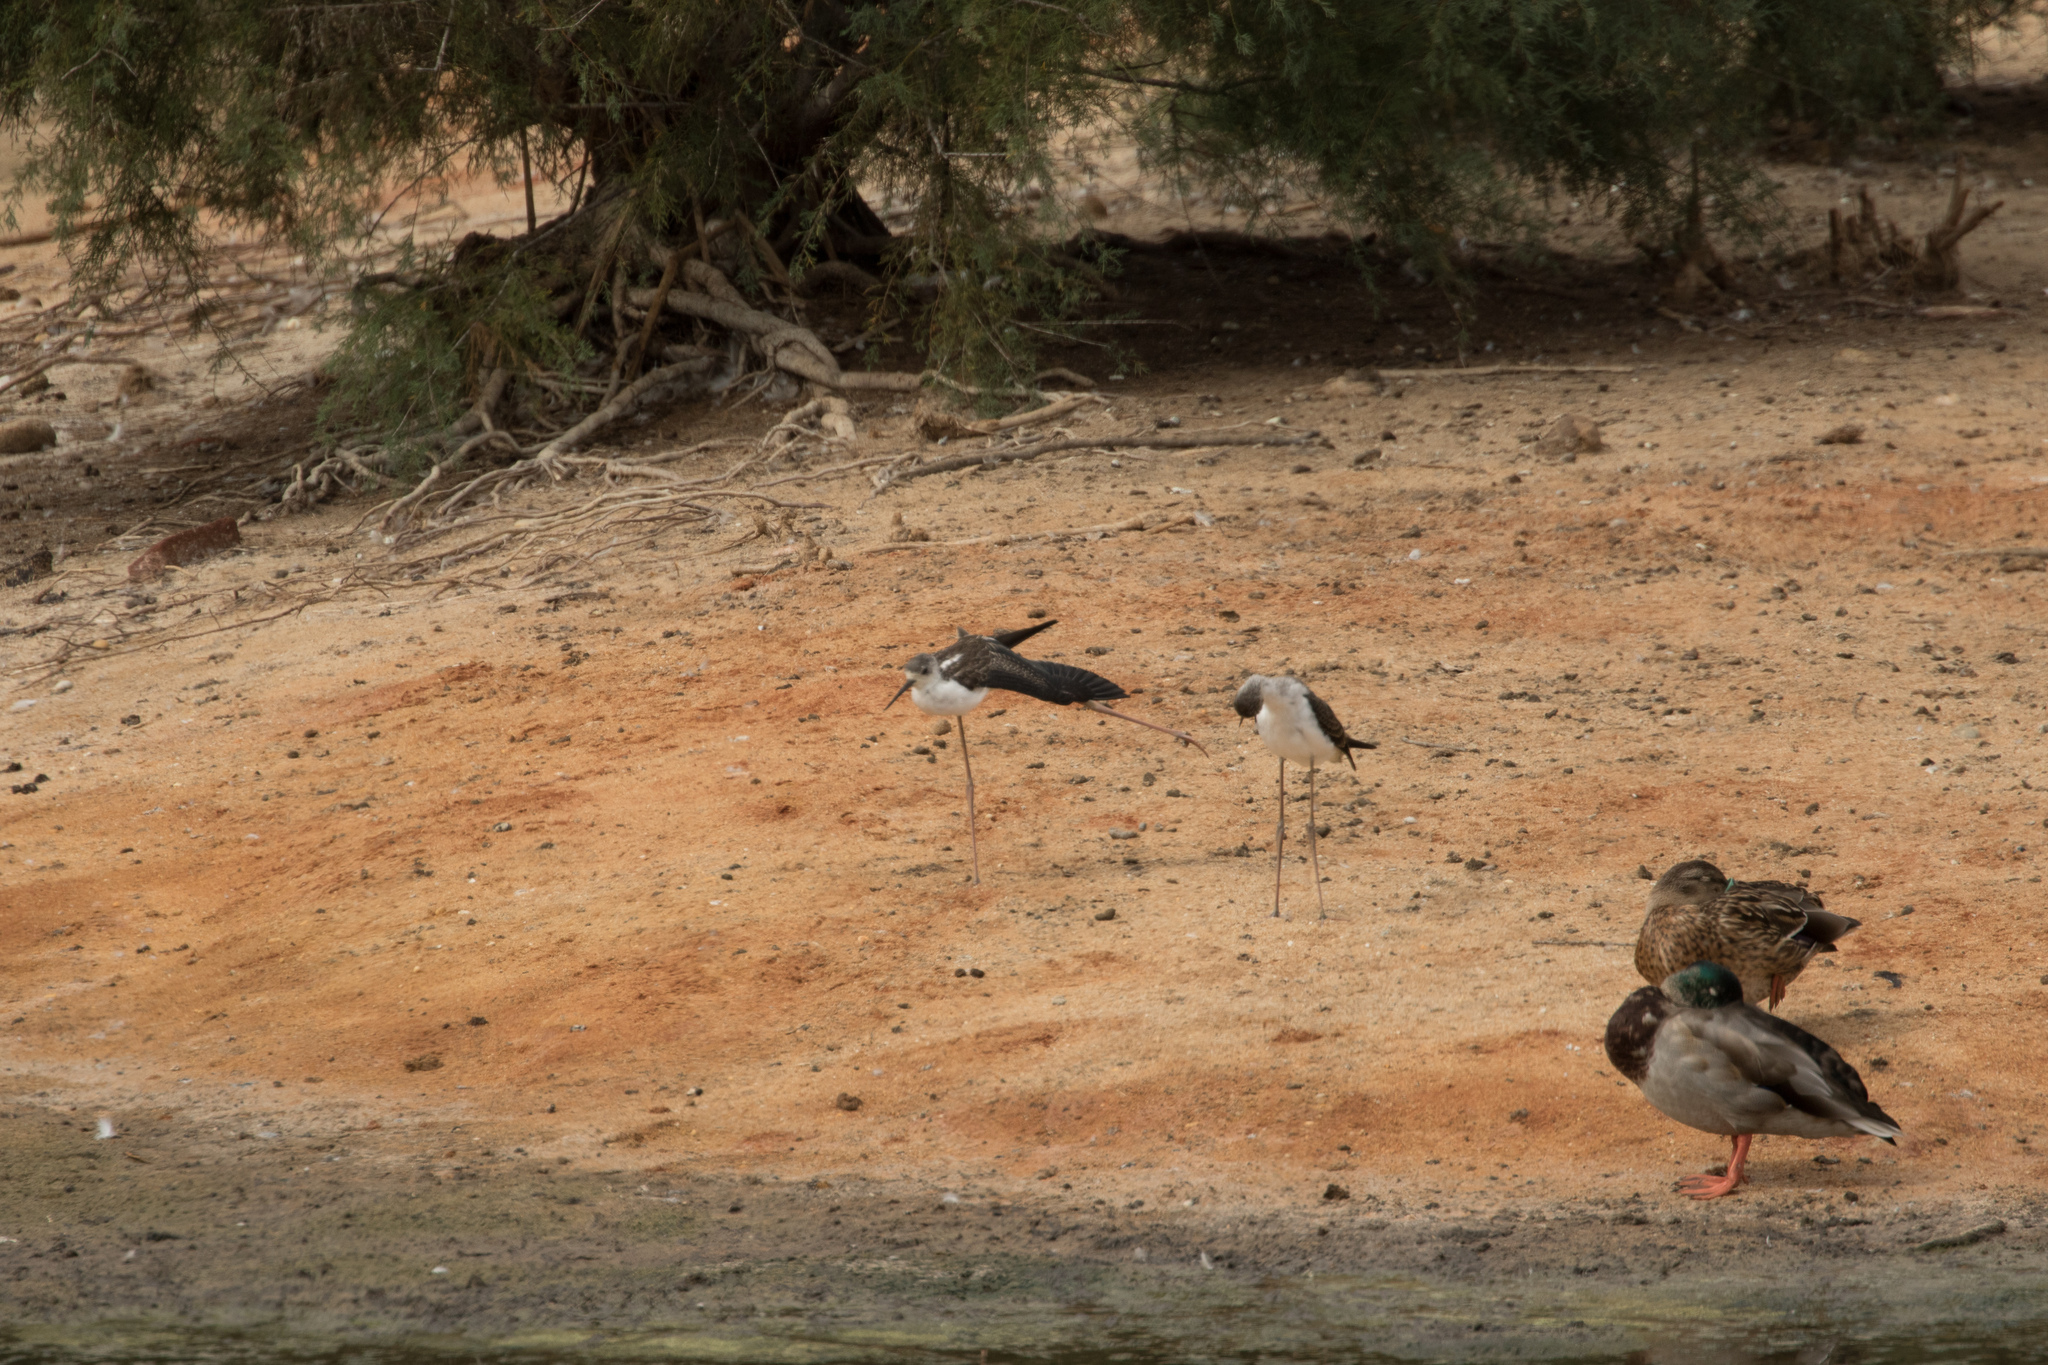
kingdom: Animalia
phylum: Chordata
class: Aves
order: Anseriformes
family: Anatidae
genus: Anas
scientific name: Anas platyrhynchos
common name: Mallard
